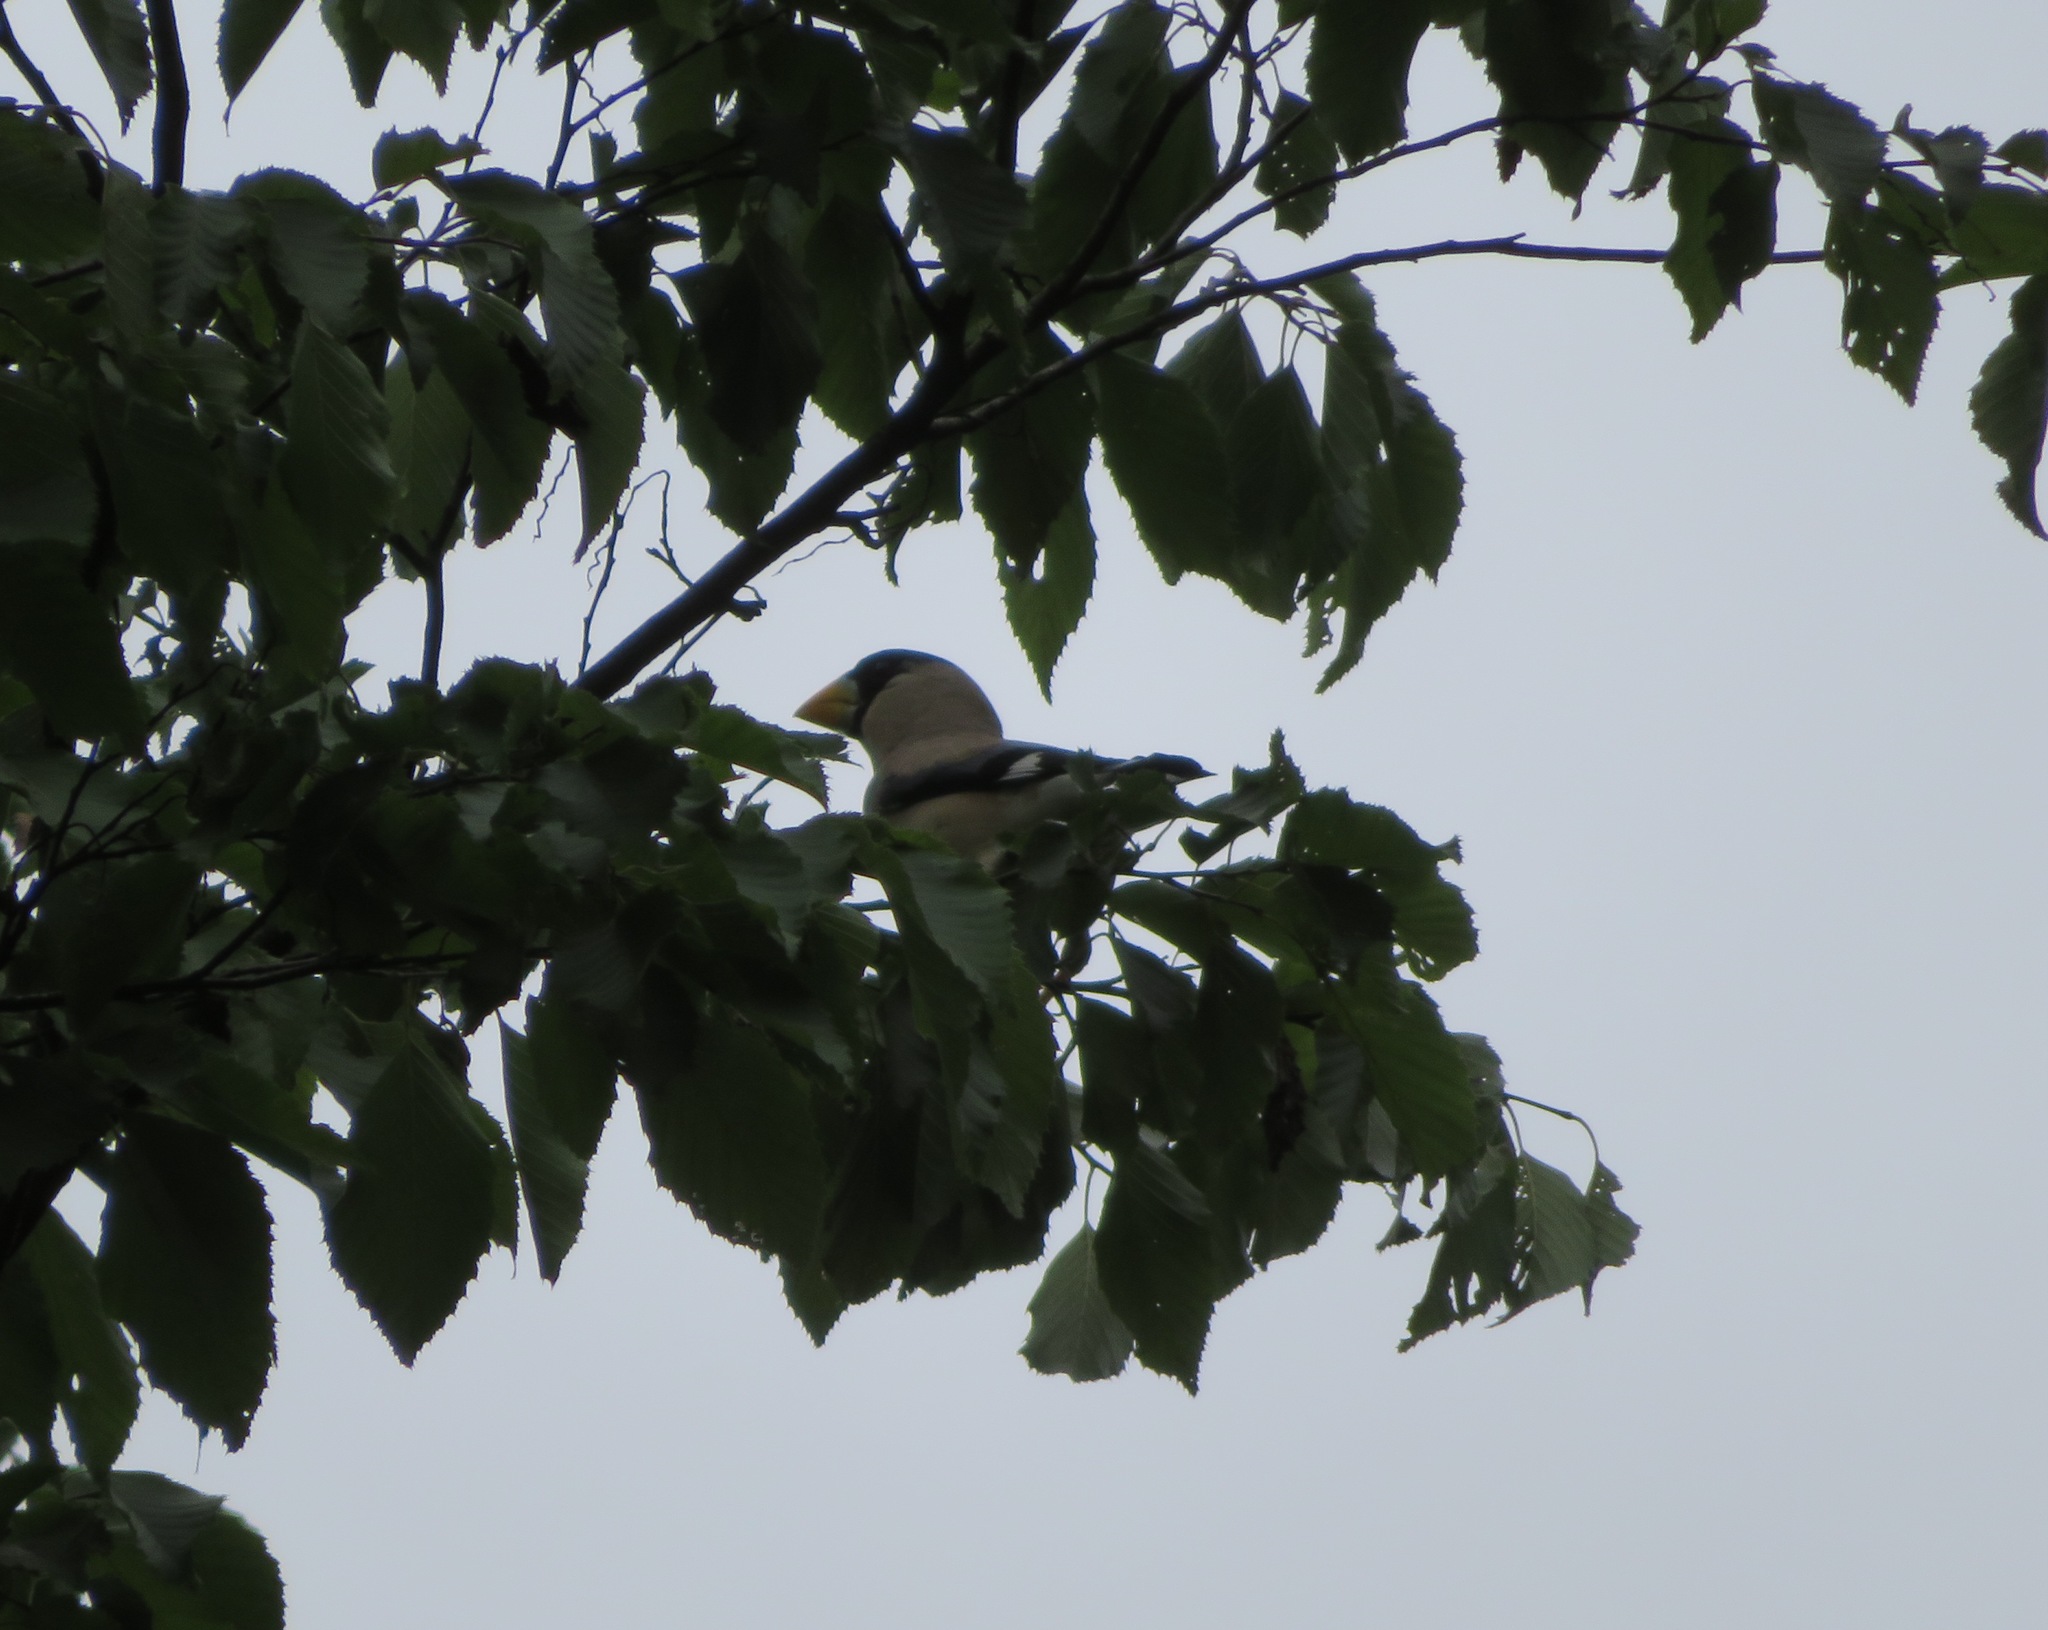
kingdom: Animalia
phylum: Chordata
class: Aves
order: Passeriformes
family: Fringillidae
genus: Eophona
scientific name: Eophona personata
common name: Japanese grosbeak
